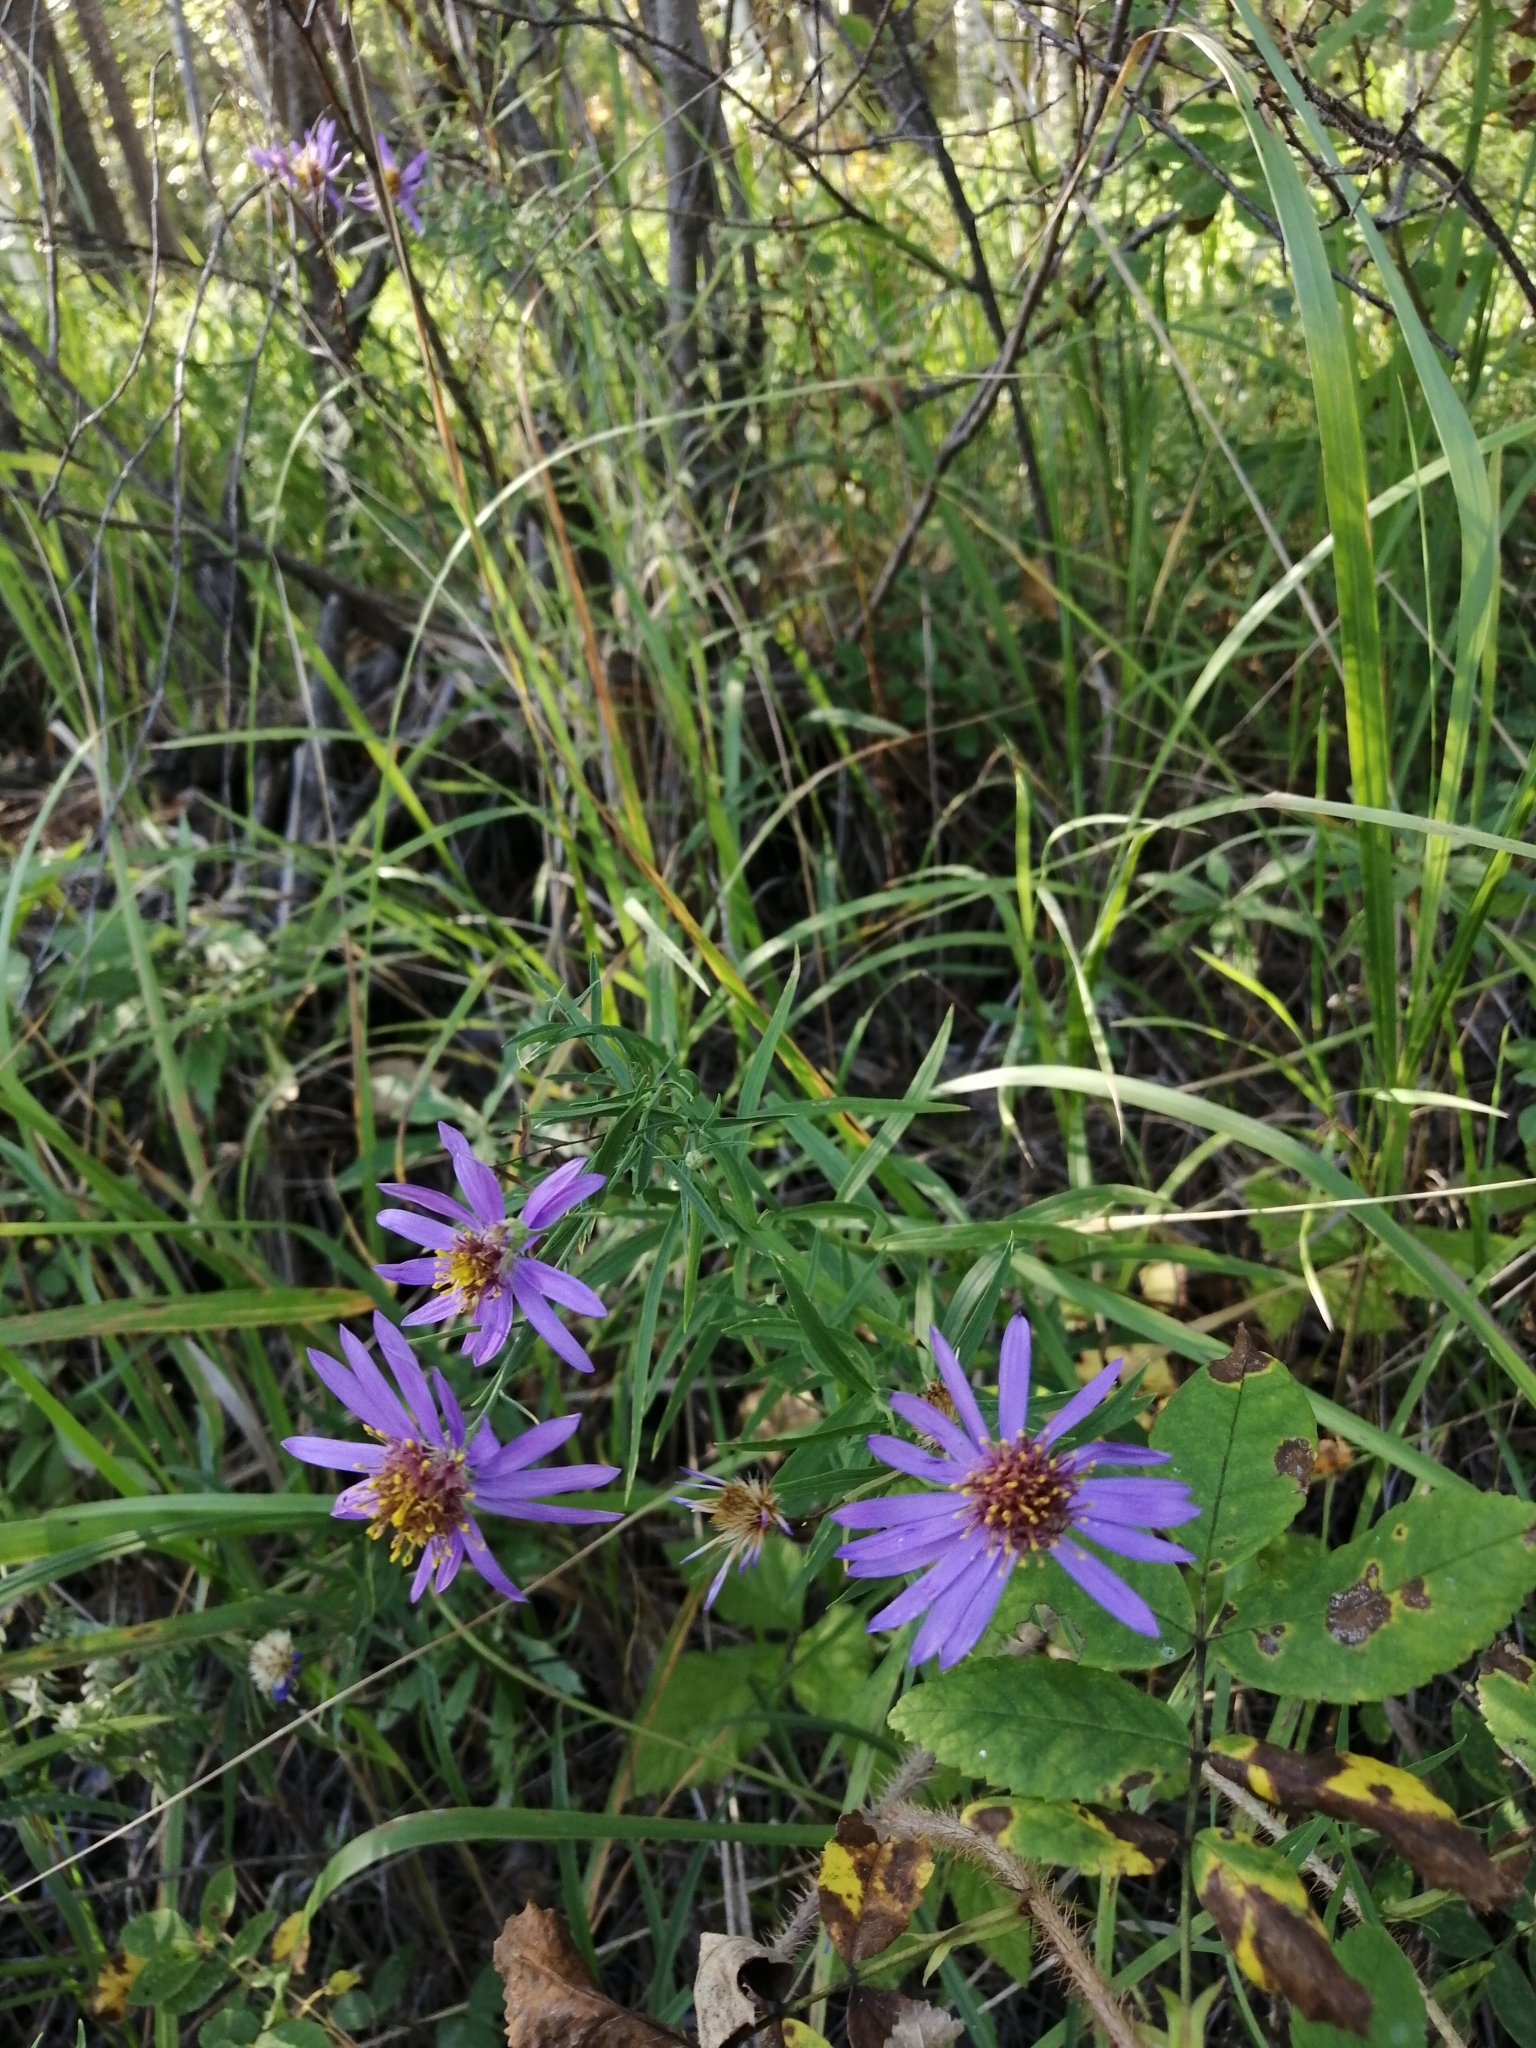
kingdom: Plantae
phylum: Tracheophyta
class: Magnoliopsida
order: Asterales
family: Asteraceae
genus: Galatella
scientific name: Galatella dahurica
